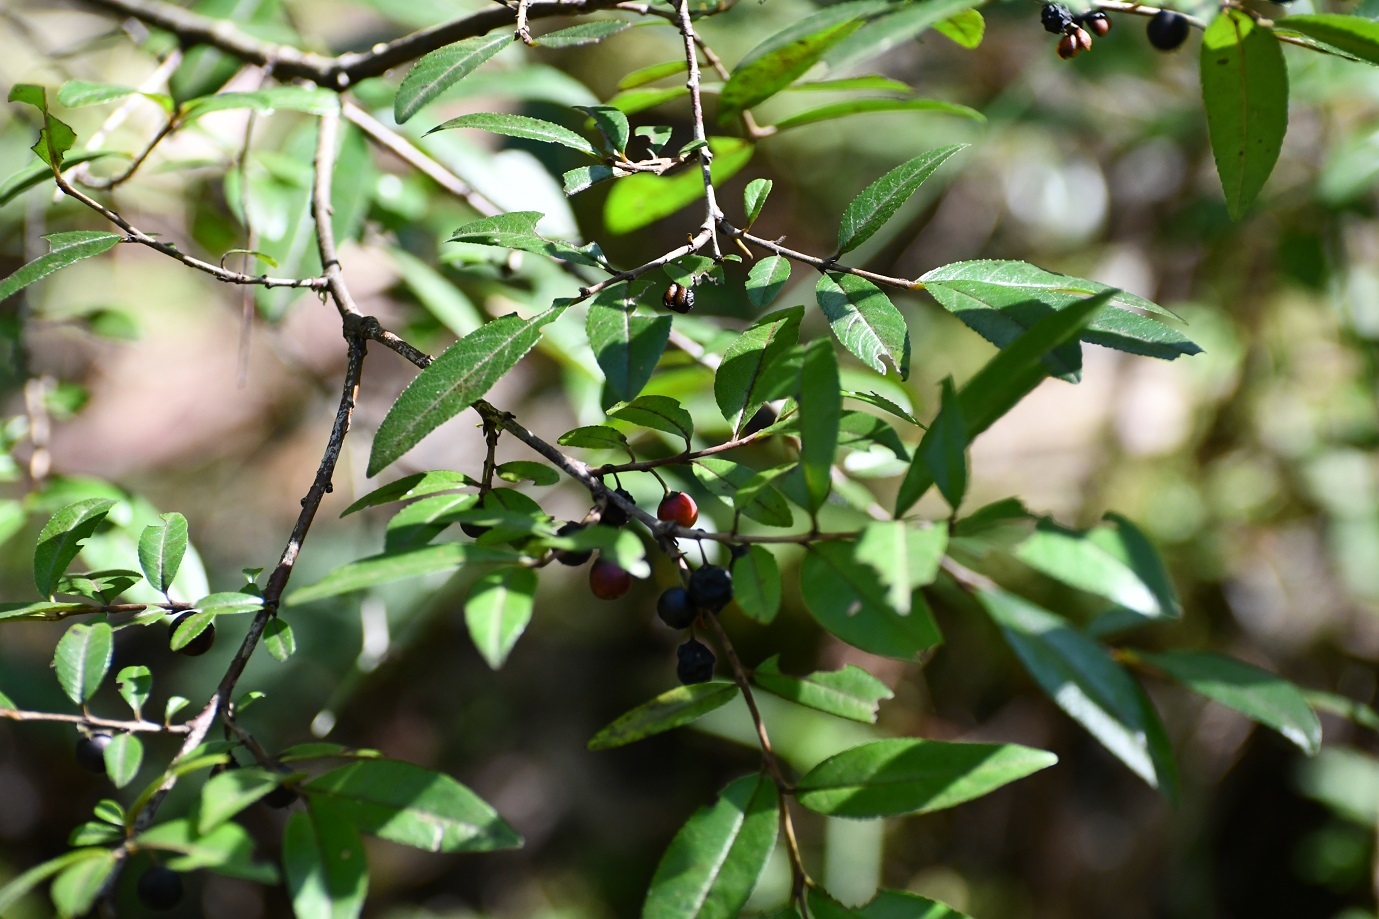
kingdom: Plantae
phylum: Tracheophyta
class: Magnoliopsida
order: Rosales
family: Rhamnaceae
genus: Frangula
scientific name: Frangula mcvaughii
